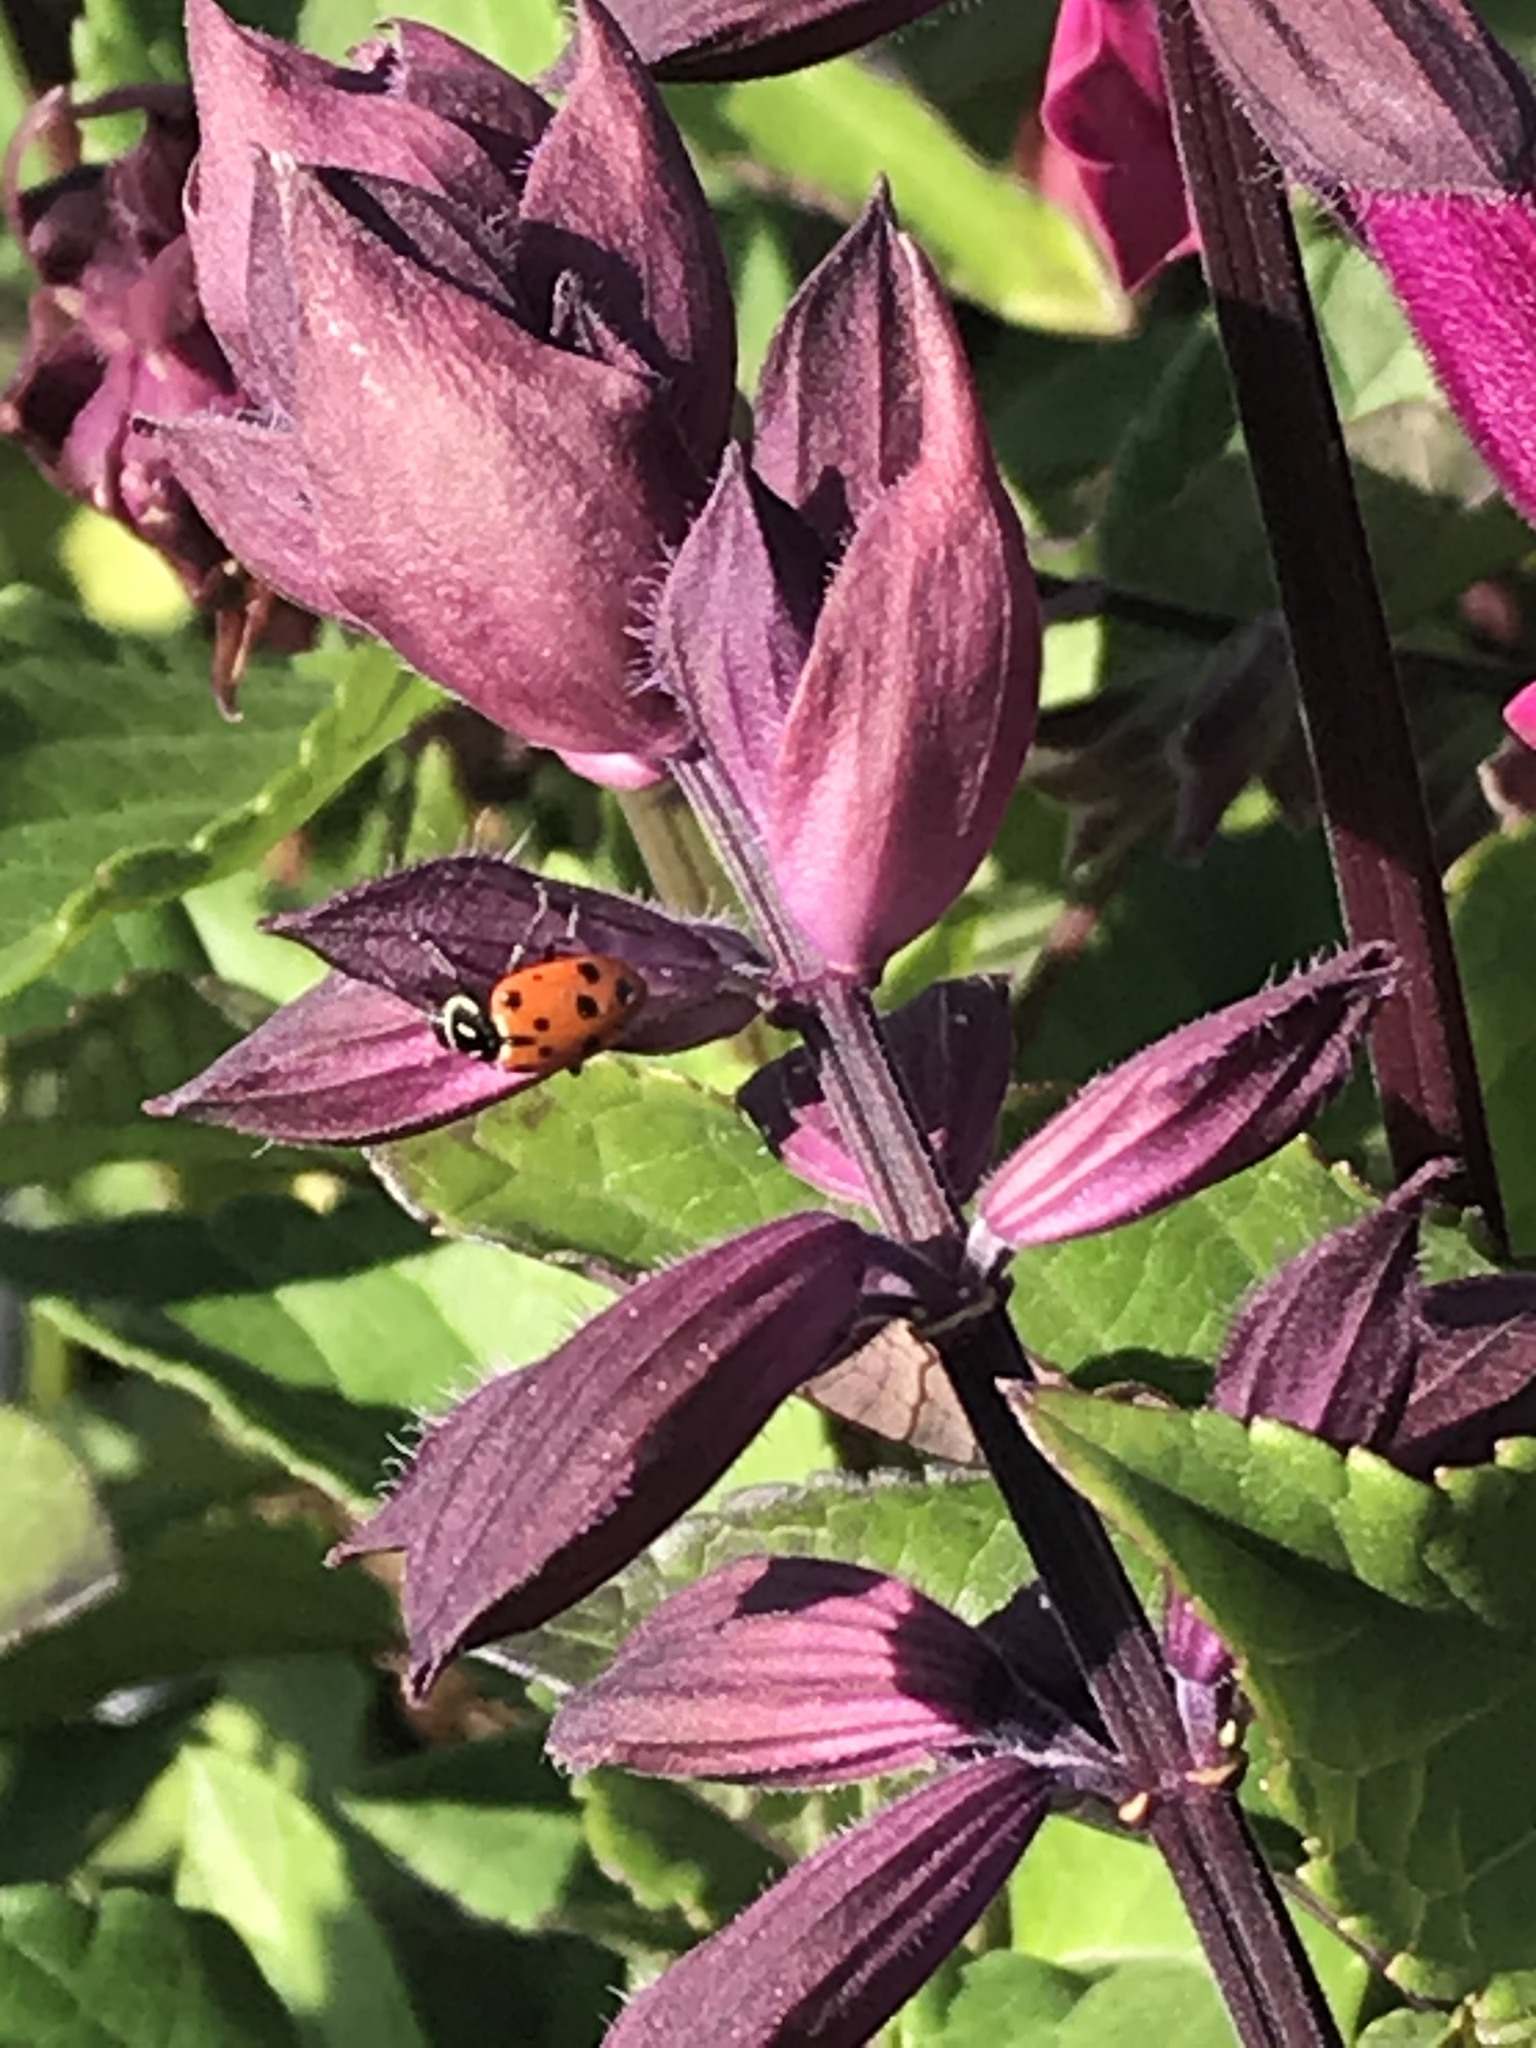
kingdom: Animalia
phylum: Arthropoda
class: Insecta
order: Coleoptera
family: Coccinellidae
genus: Hippodamia
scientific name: Hippodamia convergens
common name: Convergent lady beetle
